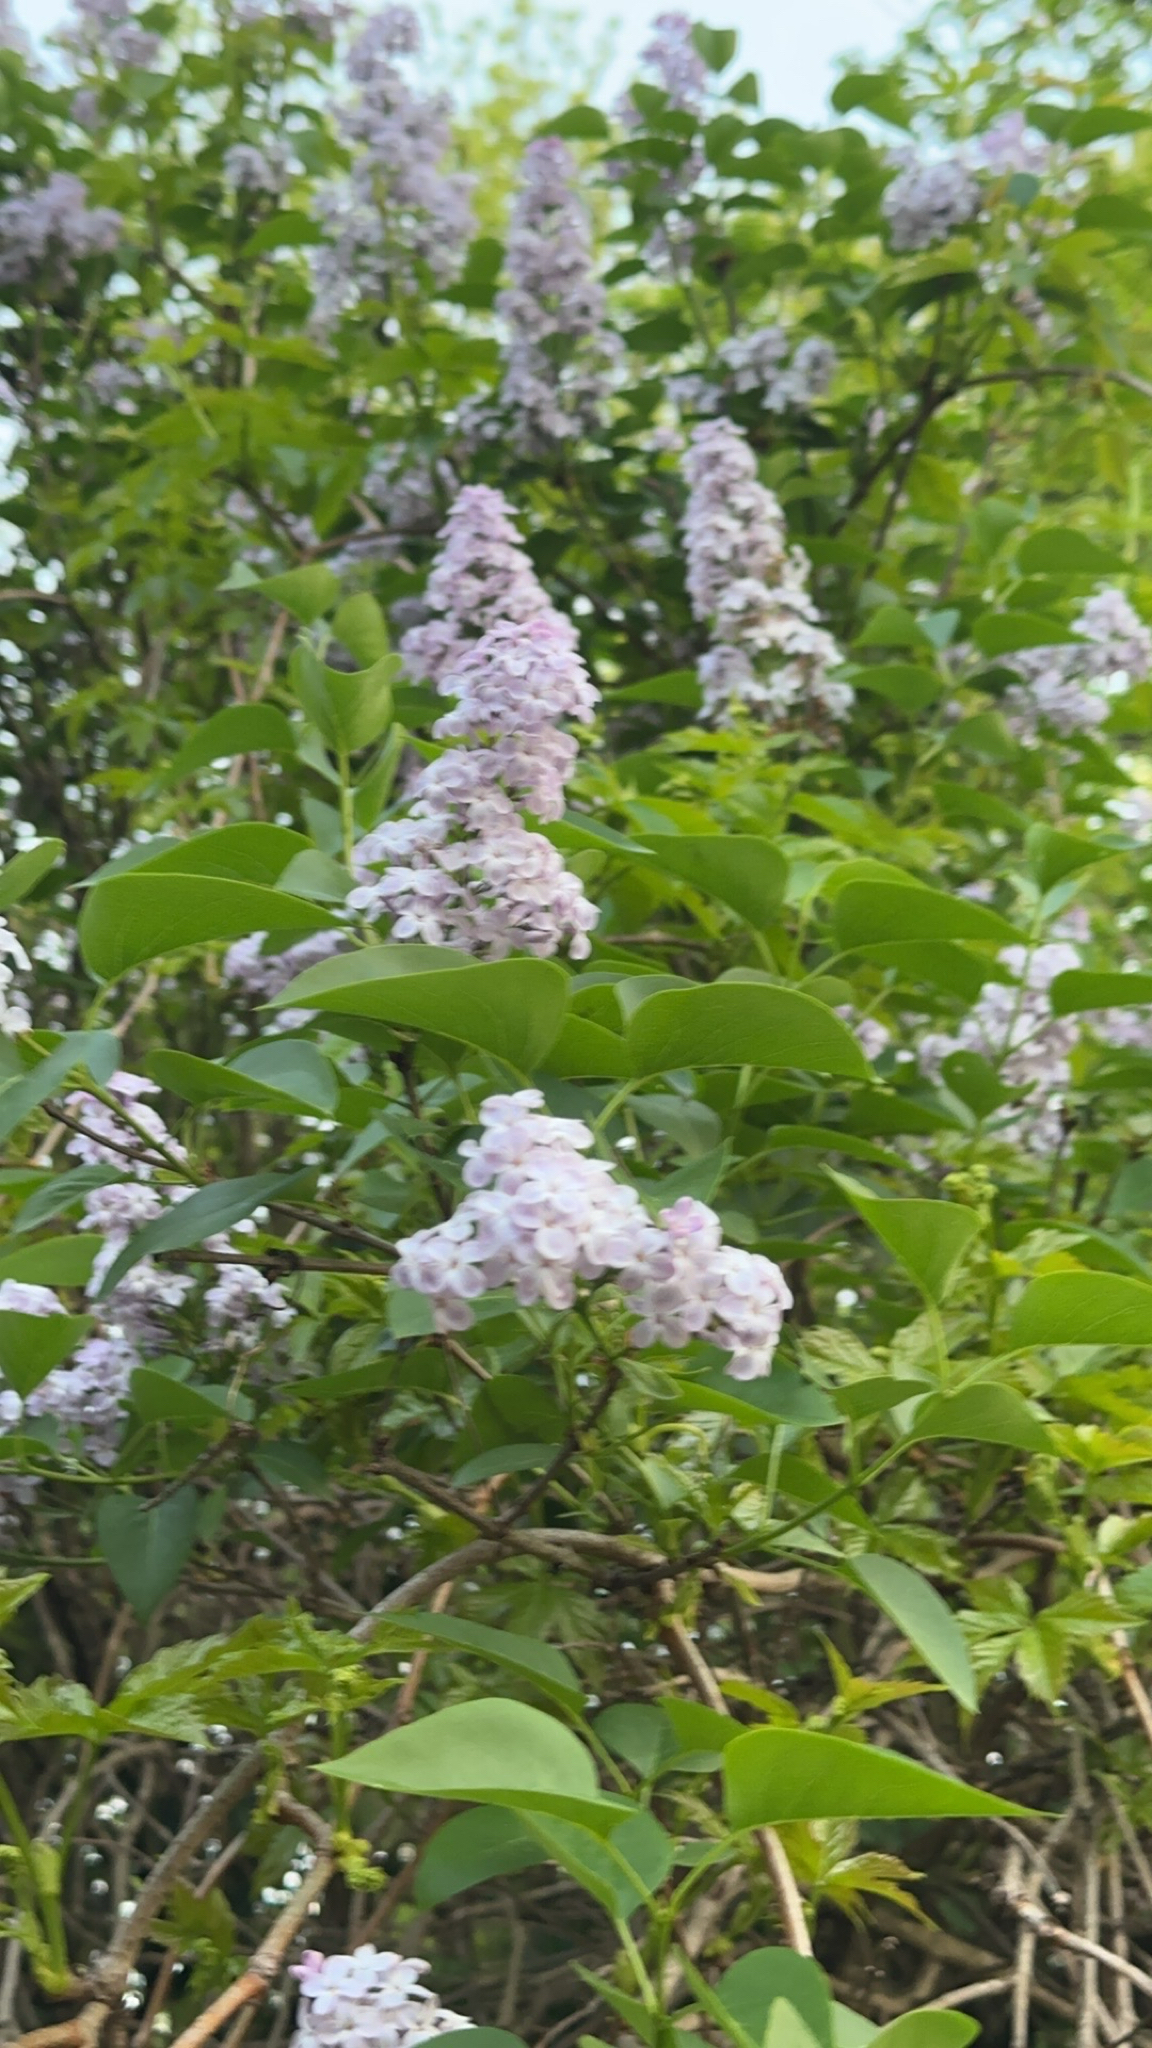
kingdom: Plantae
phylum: Tracheophyta
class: Magnoliopsida
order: Lamiales
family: Oleaceae
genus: Syringa
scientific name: Syringa vulgaris
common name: Common lilac
